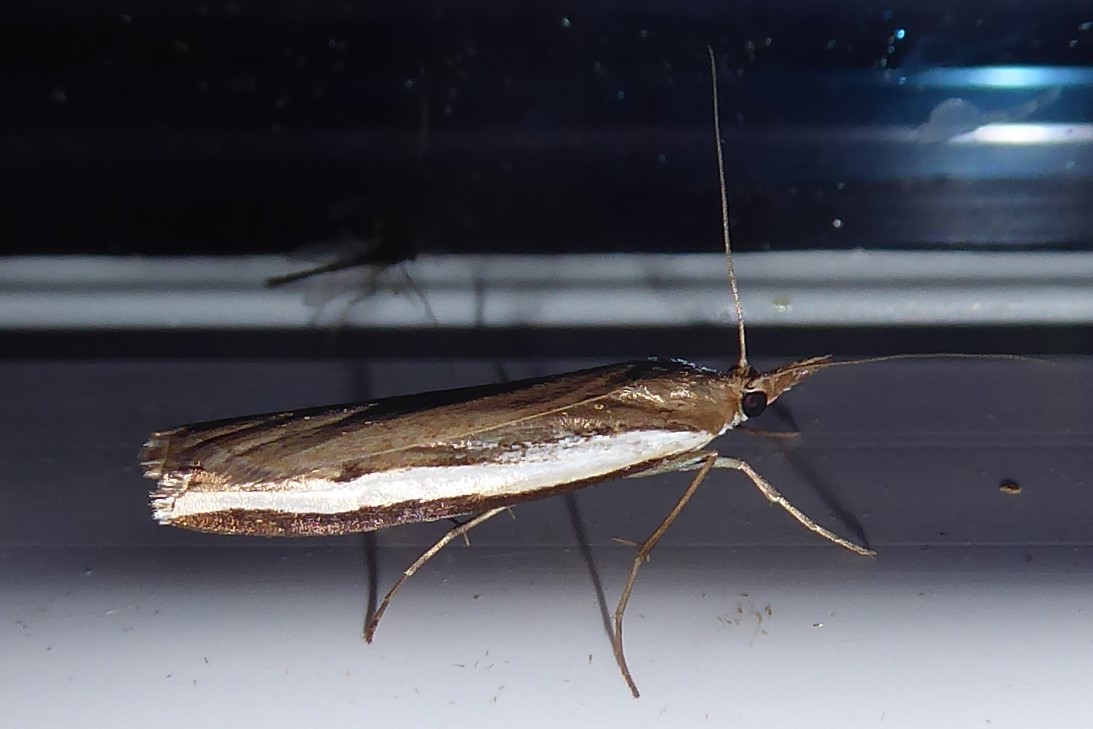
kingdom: Animalia
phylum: Arthropoda
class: Insecta
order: Lepidoptera
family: Crambidae
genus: Orocrambus
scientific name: Orocrambus flexuosellus
